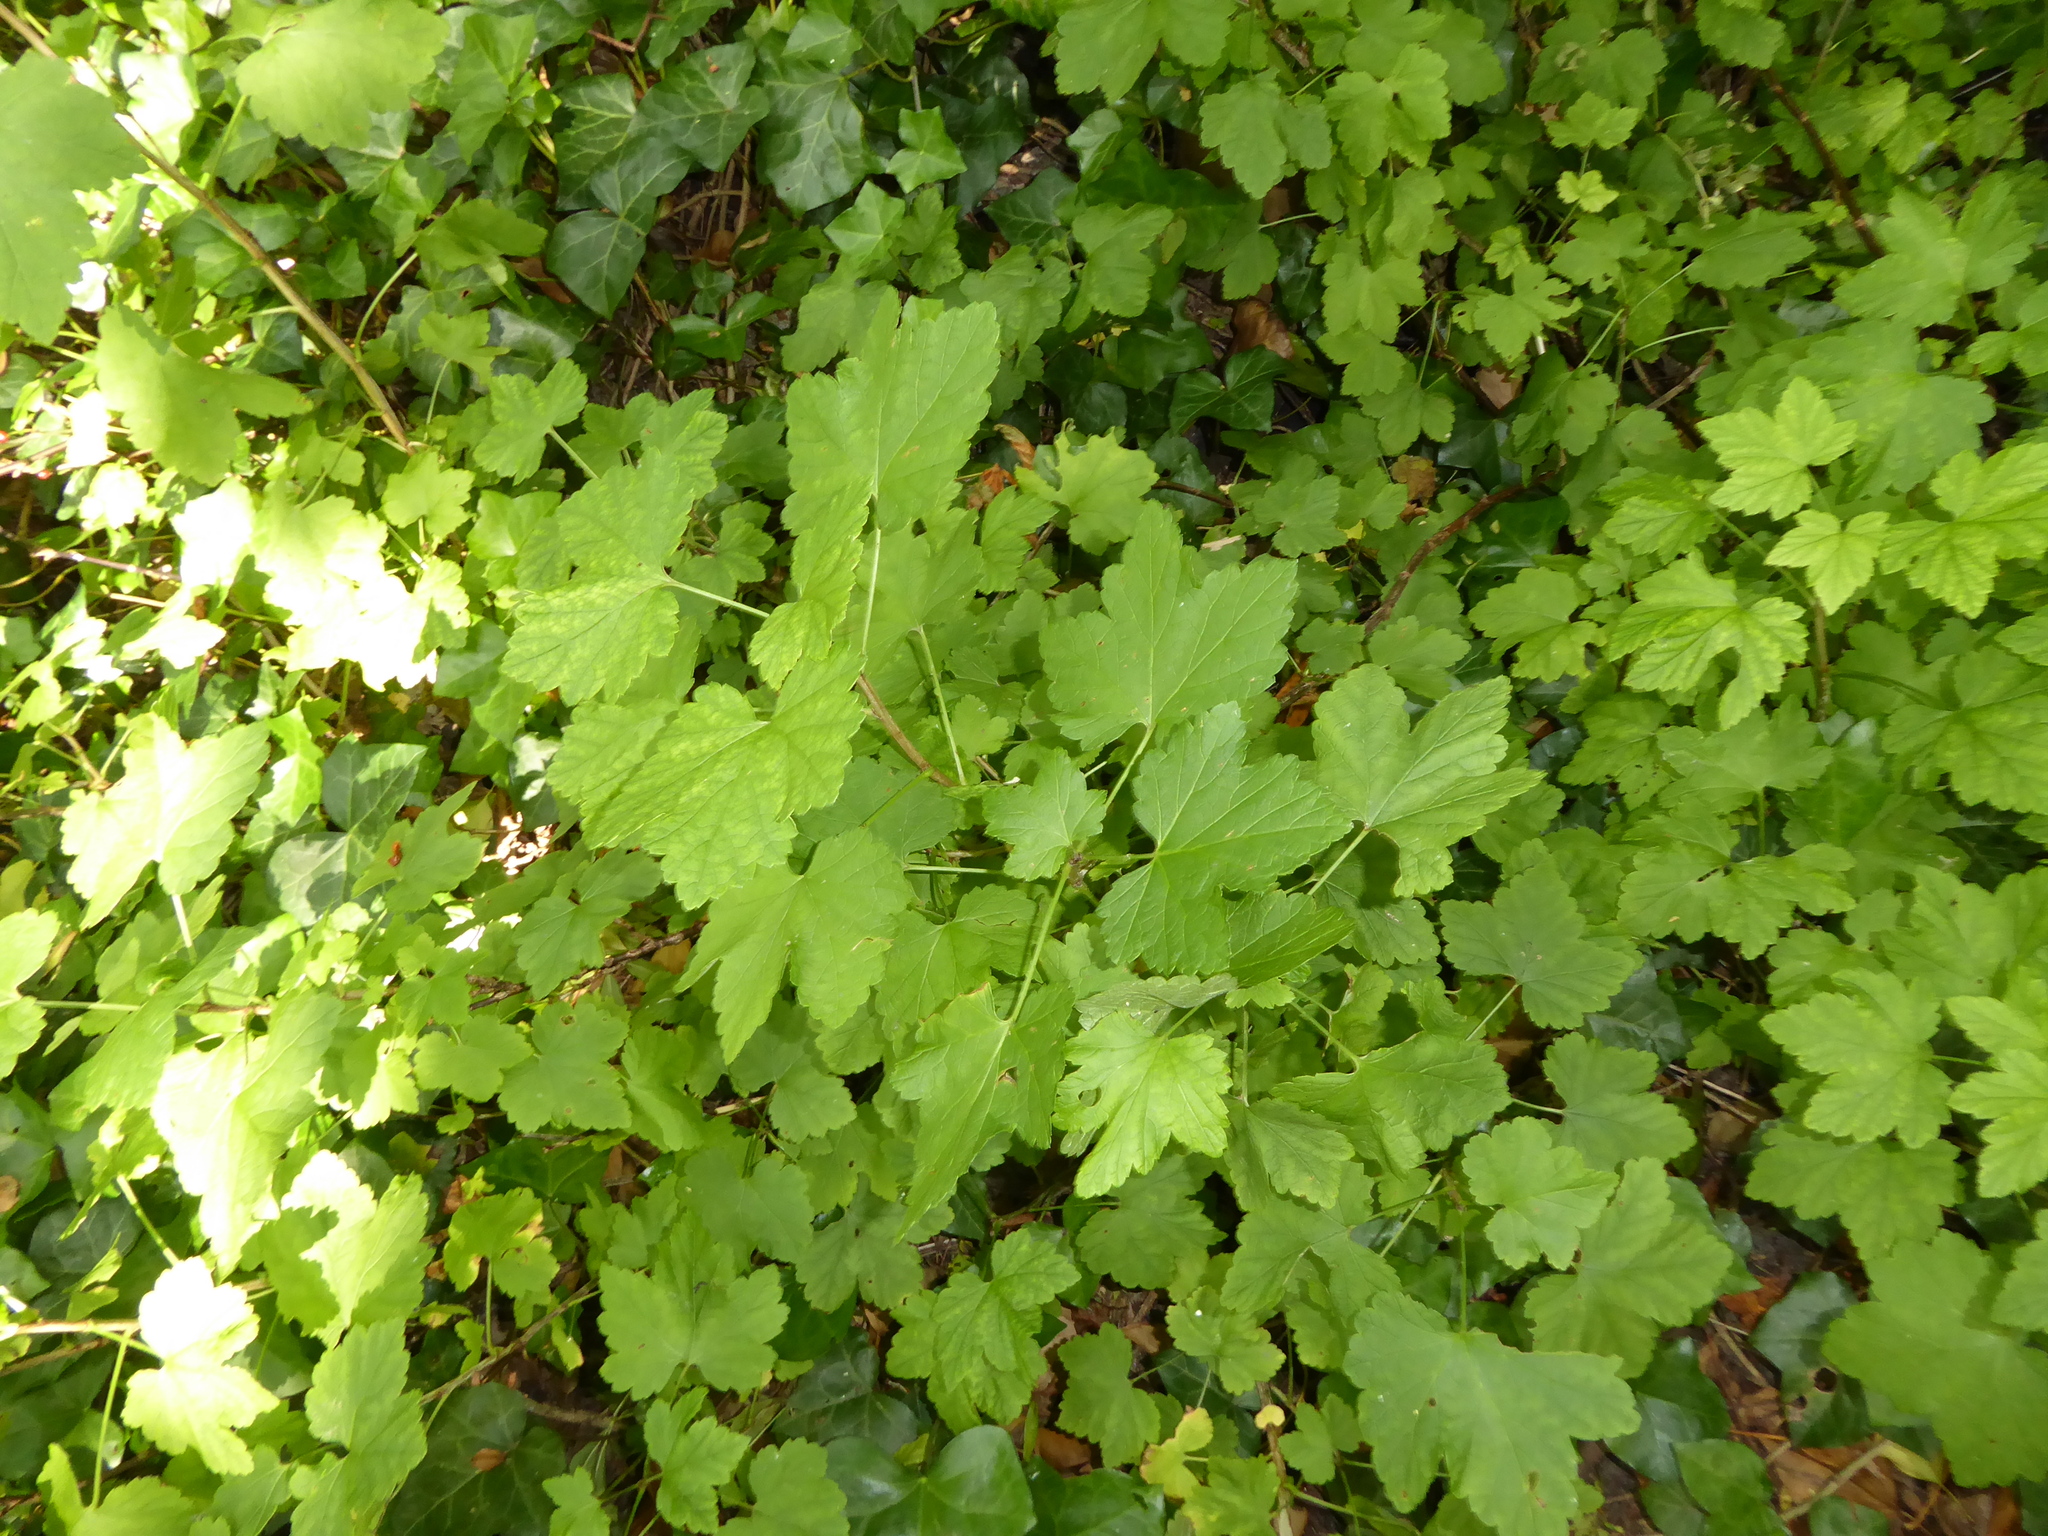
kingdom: Plantae
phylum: Tracheophyta
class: Magnoliopsida
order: Saxifragales
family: Grossulariaceae
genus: Ribes
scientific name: Ribes rubrum
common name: Red currant
